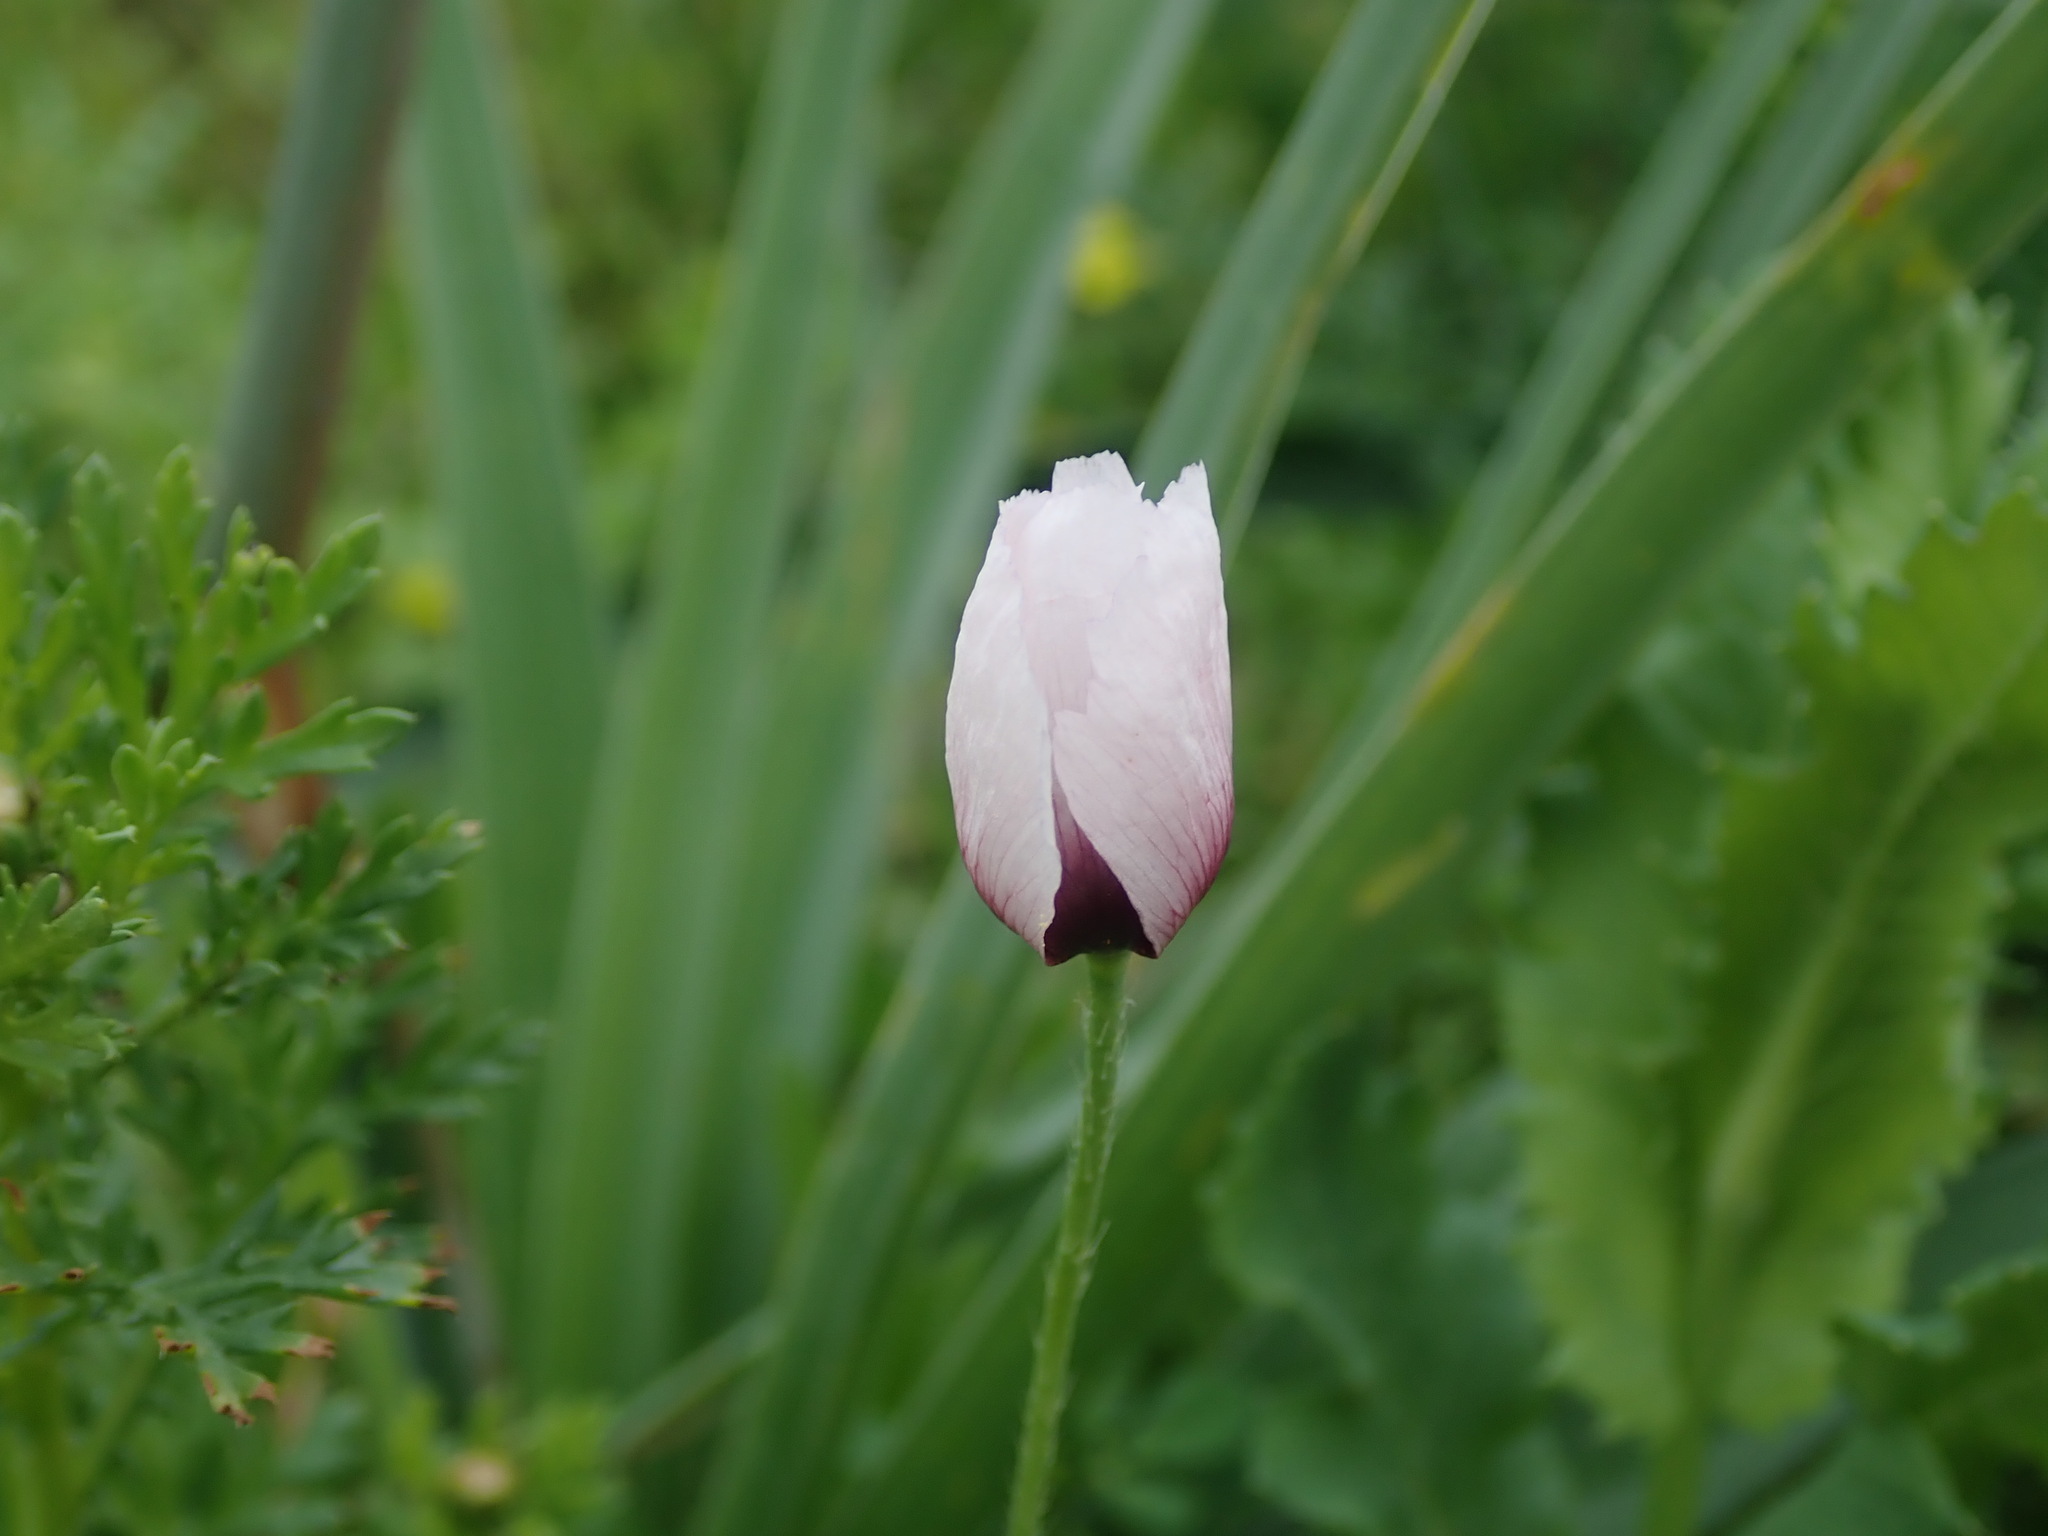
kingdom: Plantae
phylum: Tracheophyta
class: Magnoliopsida
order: Ranunculales
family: Papaveraceae
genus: Papaver
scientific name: Papaver setigerum
